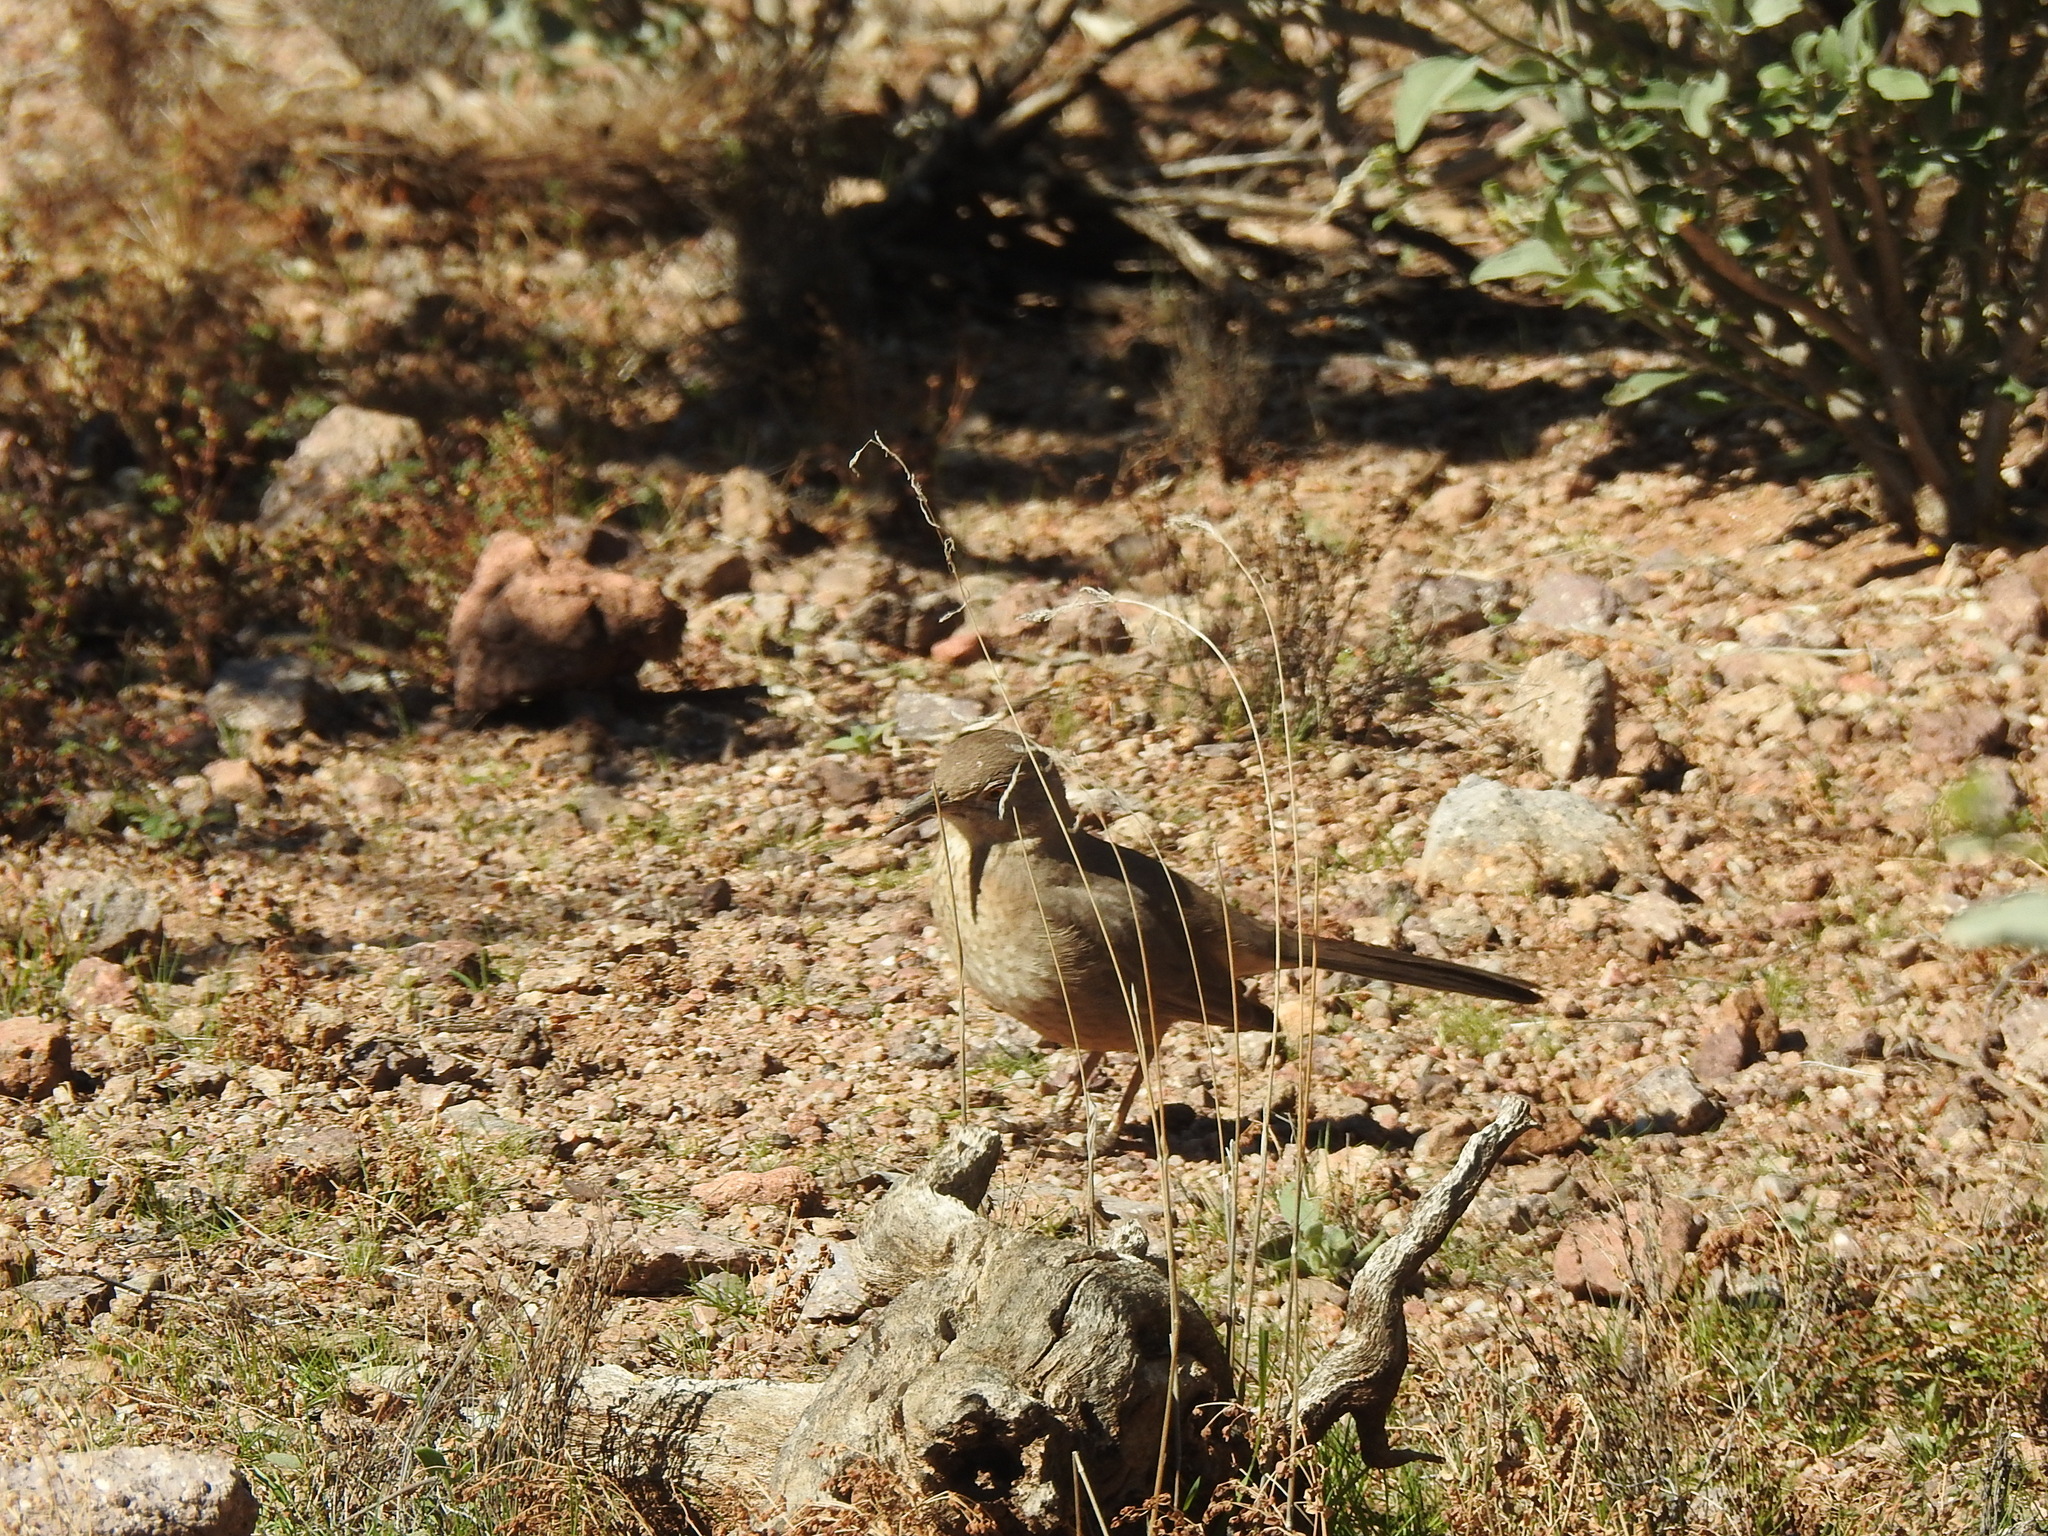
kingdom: Animalia
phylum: Chordata
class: Aves
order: Passeriformes
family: Mimidae
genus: Toxostoma
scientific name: Toxostoma bendirei
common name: Bendire's thrasher
